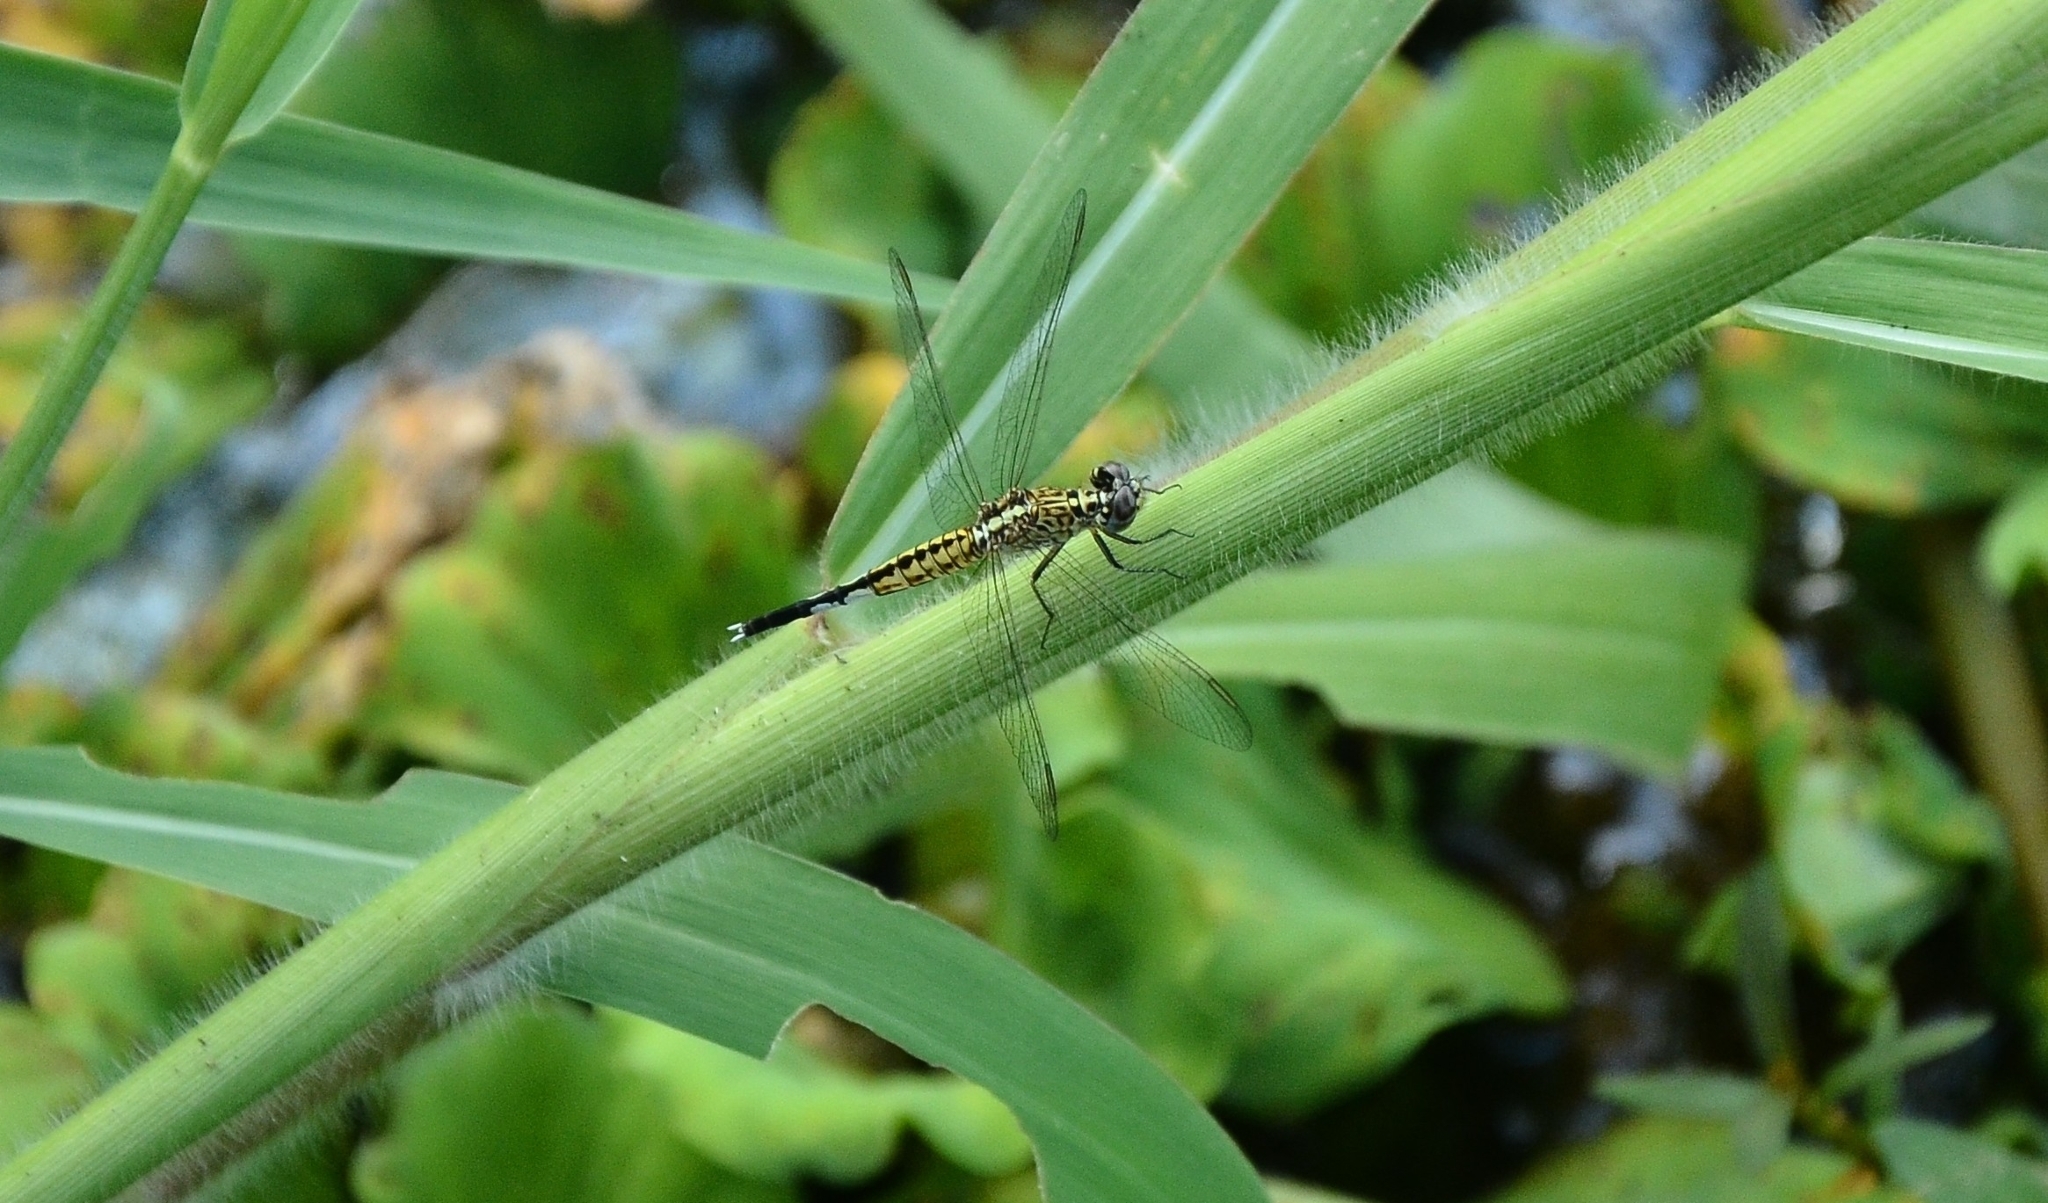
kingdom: Animalia
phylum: Arthropoda
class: Insecta
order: Odonata
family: Libellulidae
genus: Acisoma
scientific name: Acisoma panorpoides
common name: Asian pintail
